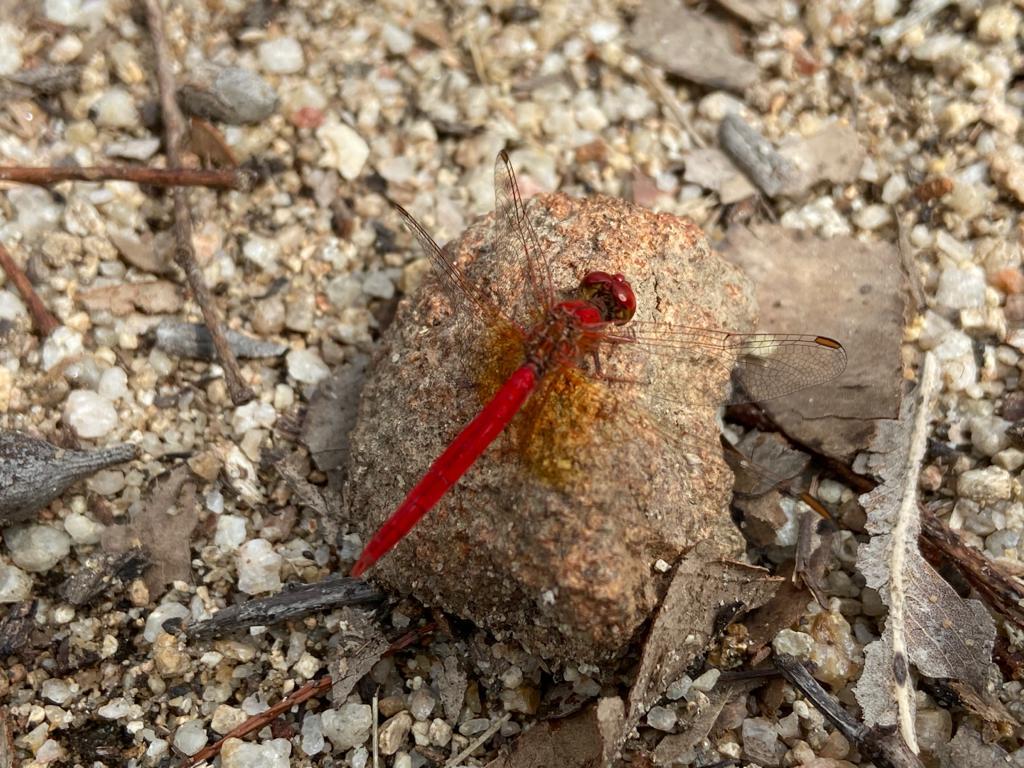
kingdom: Animalia
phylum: Arthropoda
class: Insecta
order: Odonata
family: Libellulidae
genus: Diplacodes
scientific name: Diplacodes haematodes
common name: Scarlet percher
